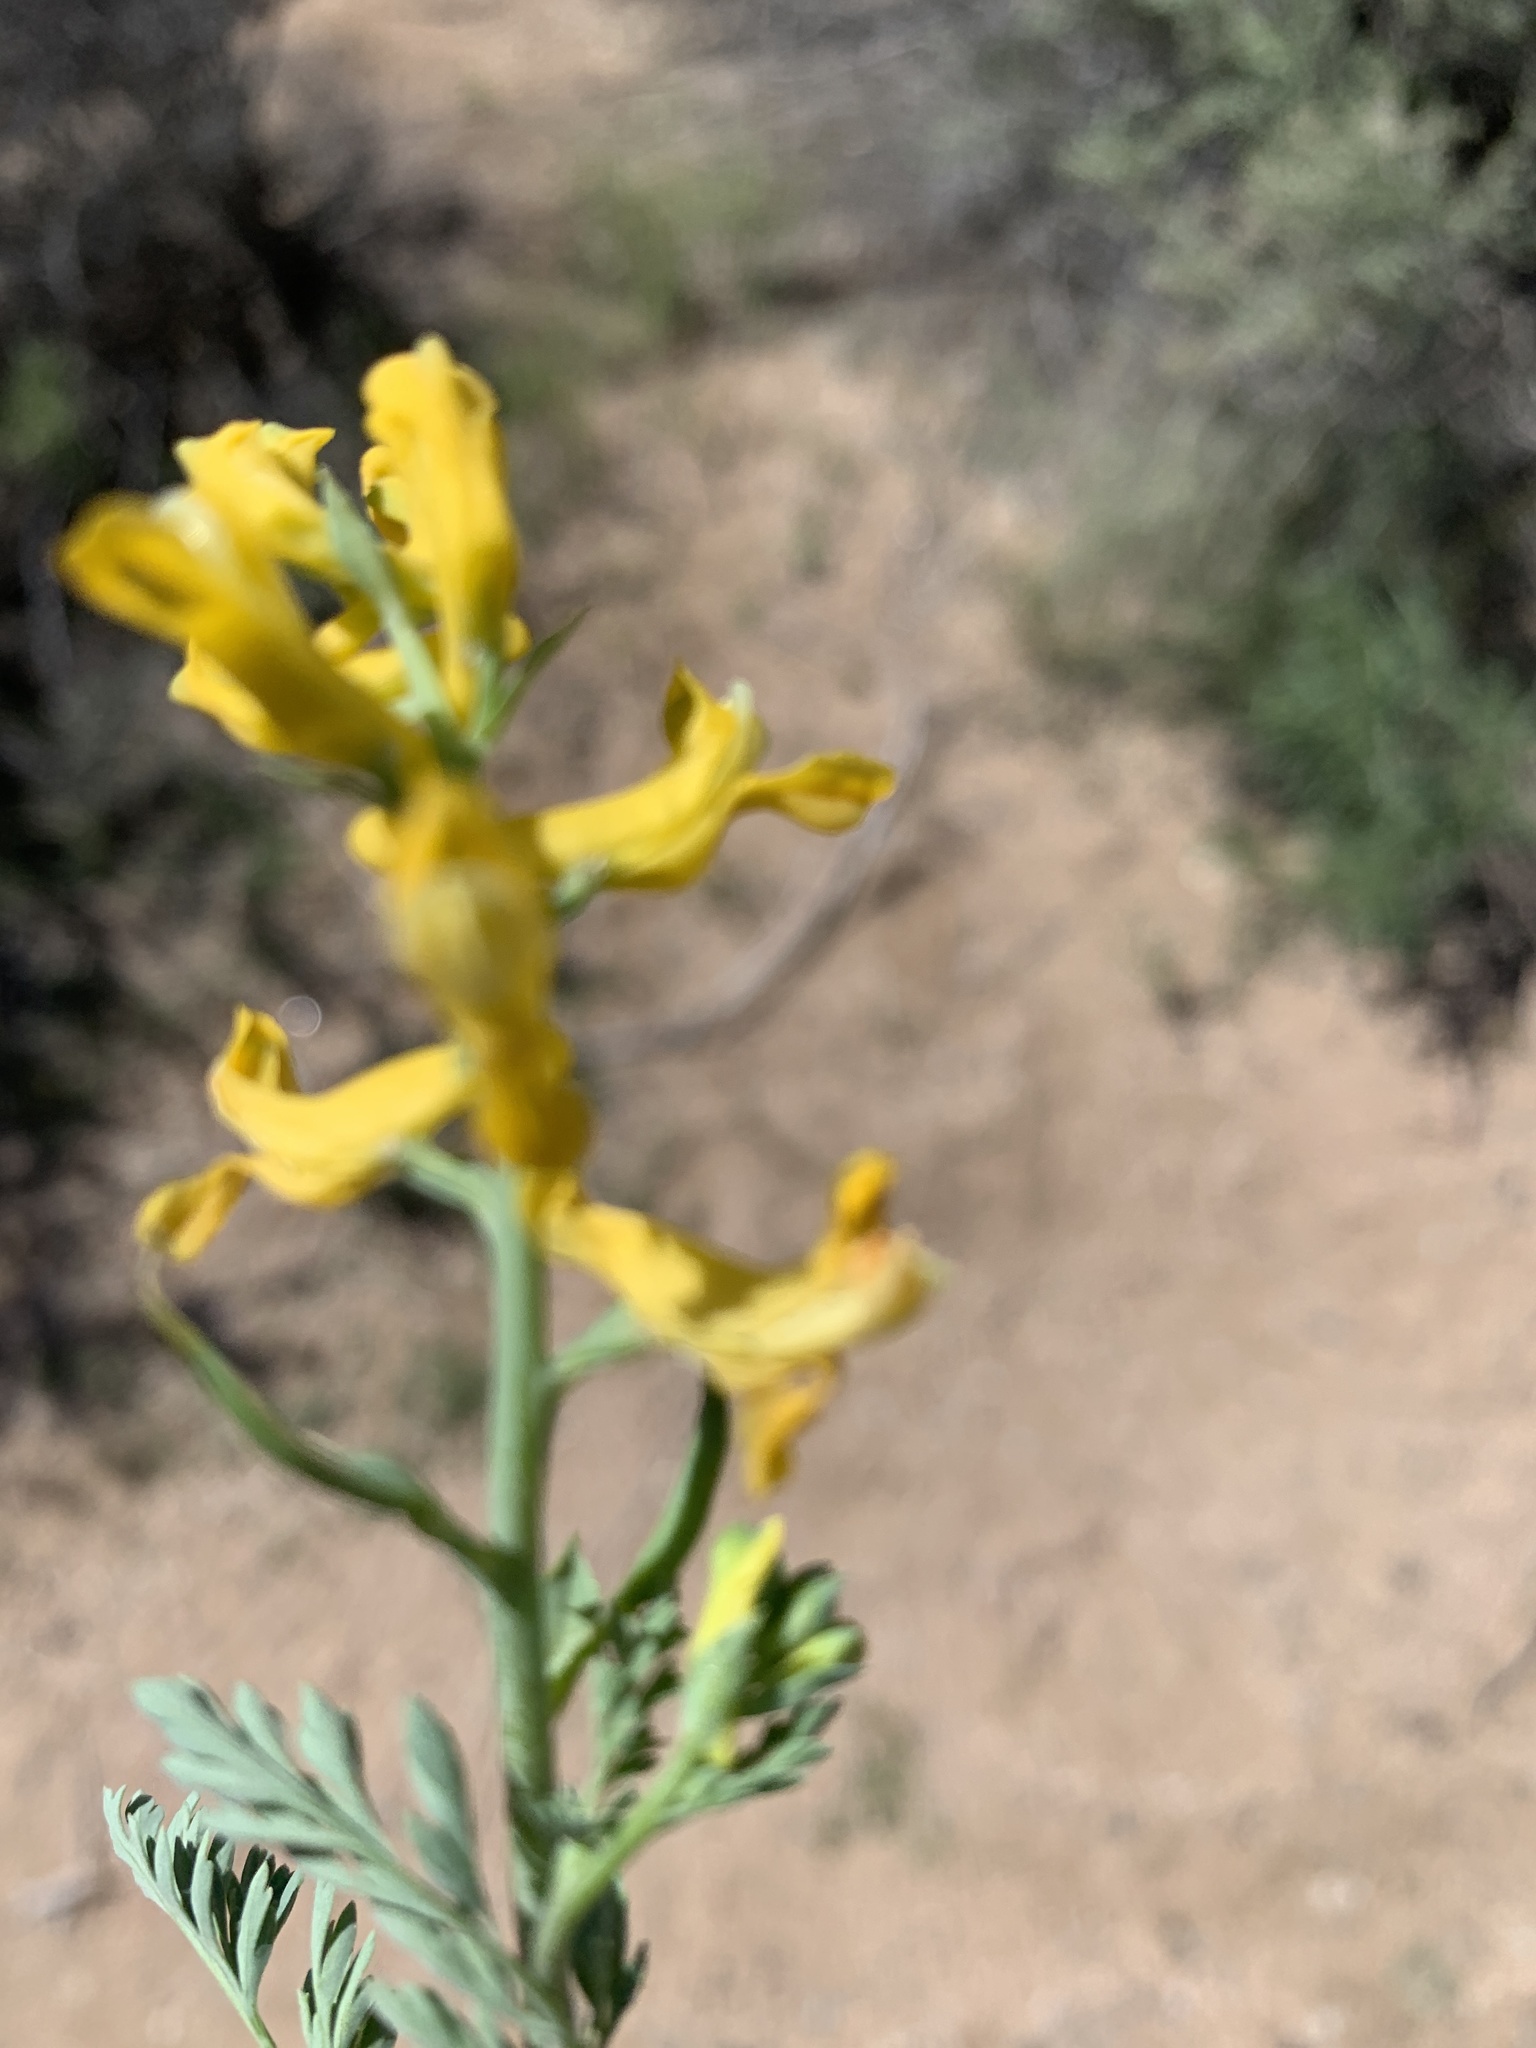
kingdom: Plantae
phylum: Tracheophyta
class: Magnoliopsida
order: Ranunculales
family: Papaveraceae
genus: Corydalis
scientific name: Corydalis aurea
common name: Golden corydalis
